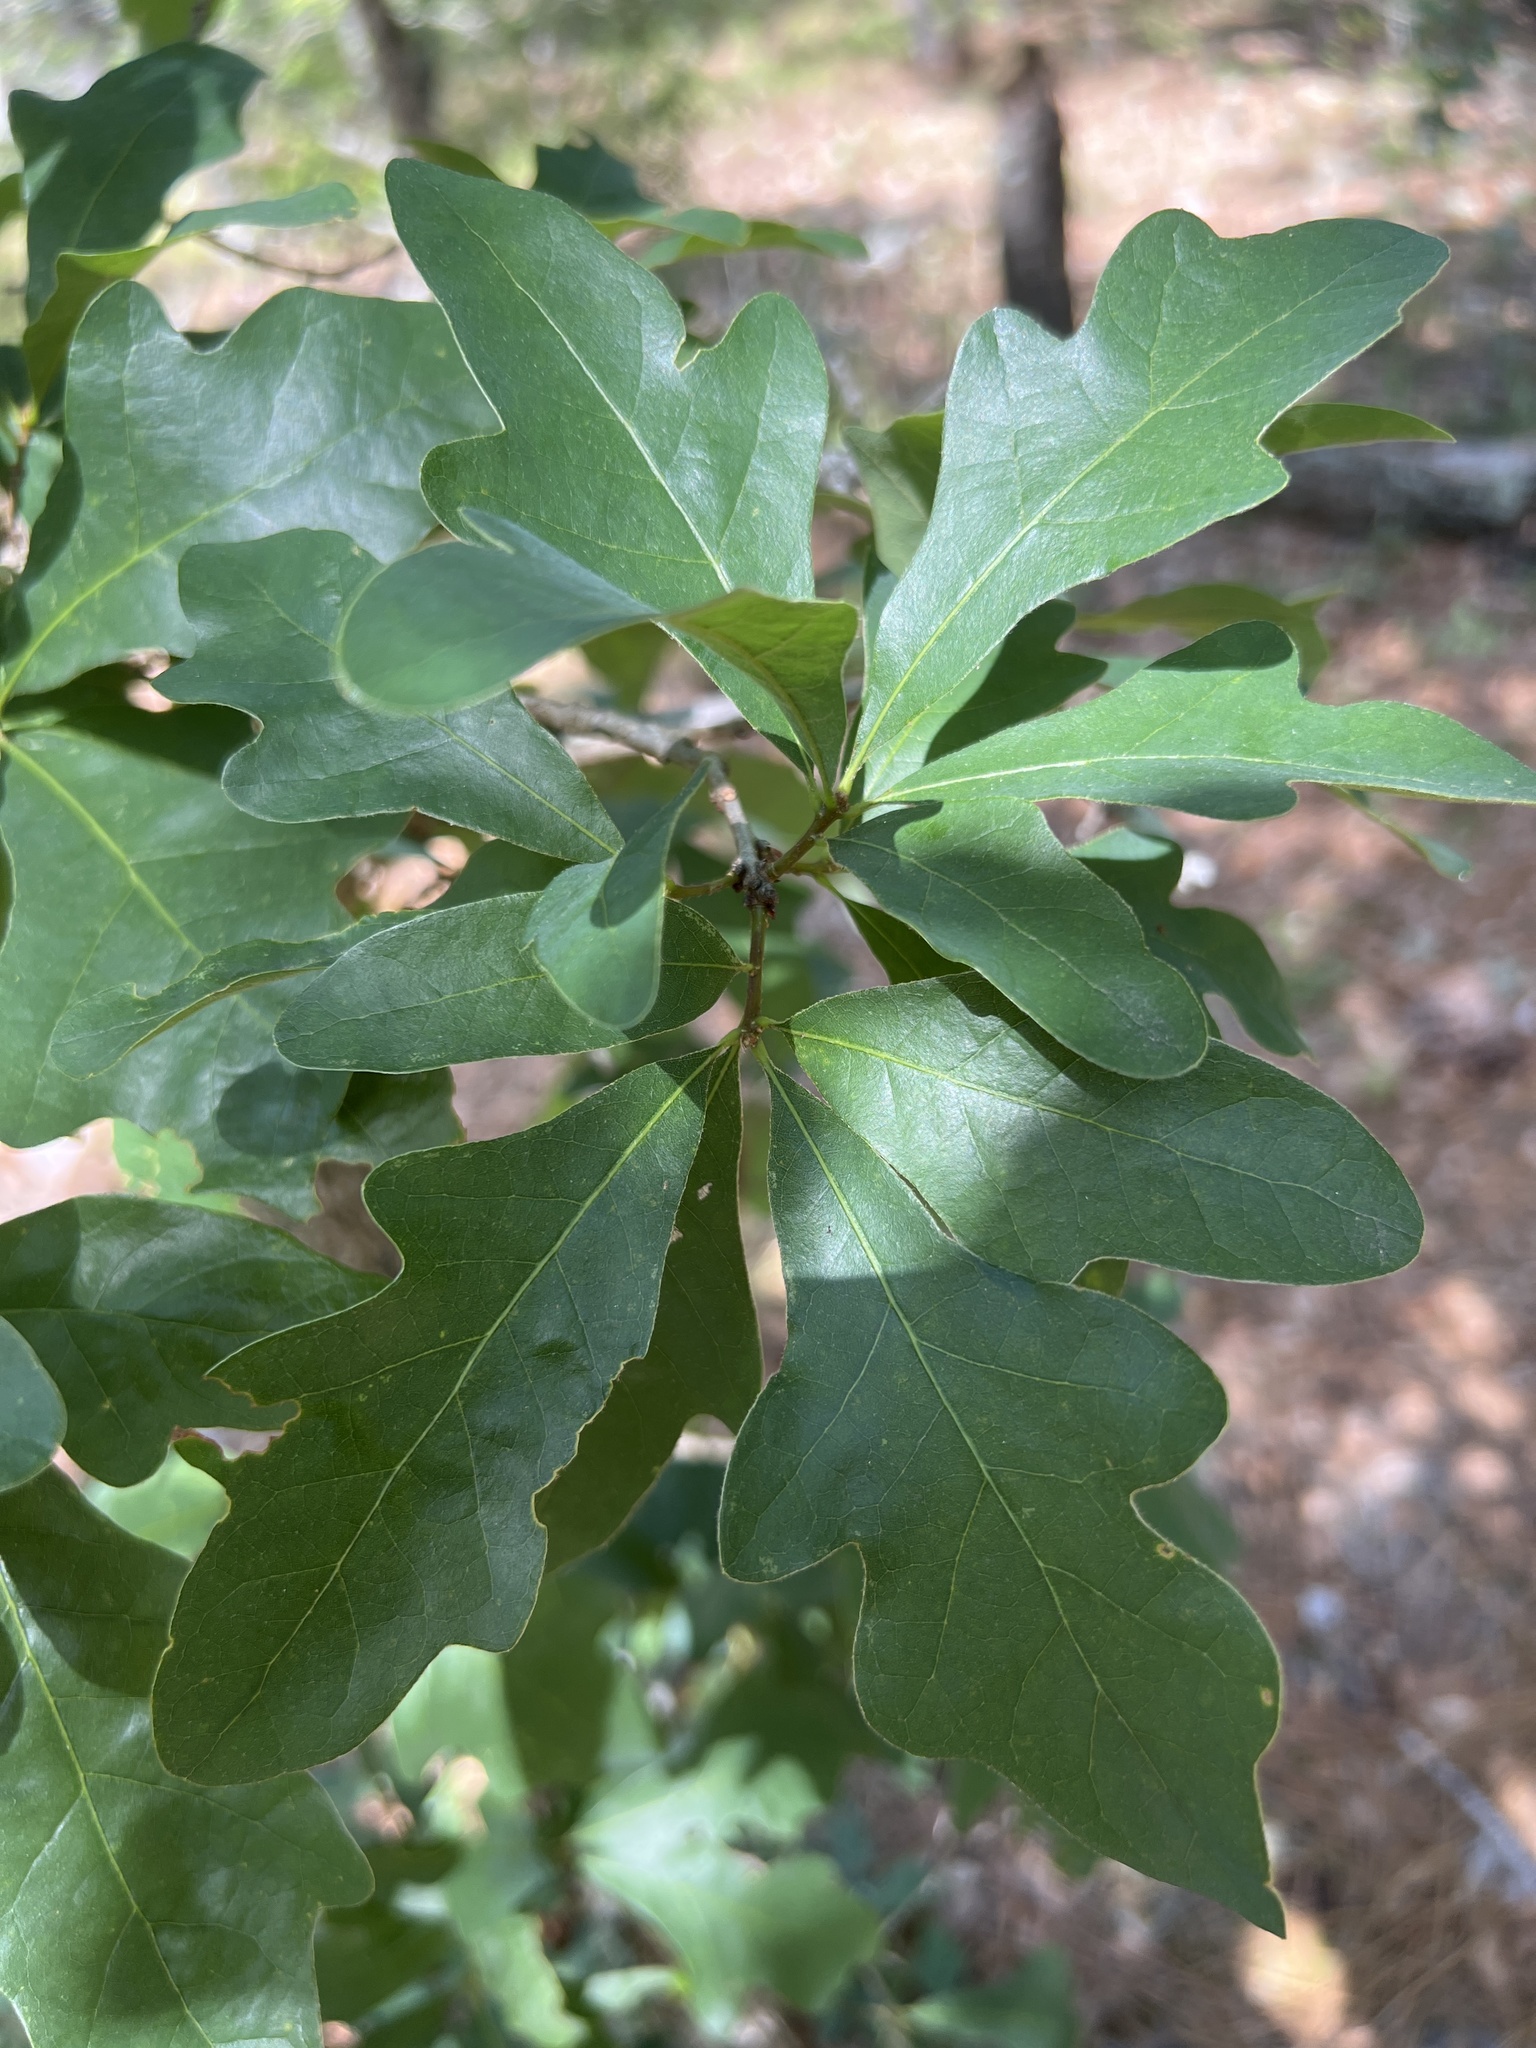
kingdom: Plantae
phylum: Tracheophyta
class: Magnoliopsida
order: Fagales
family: Fagaceae
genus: Quercus
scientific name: Quercus margaretiae
